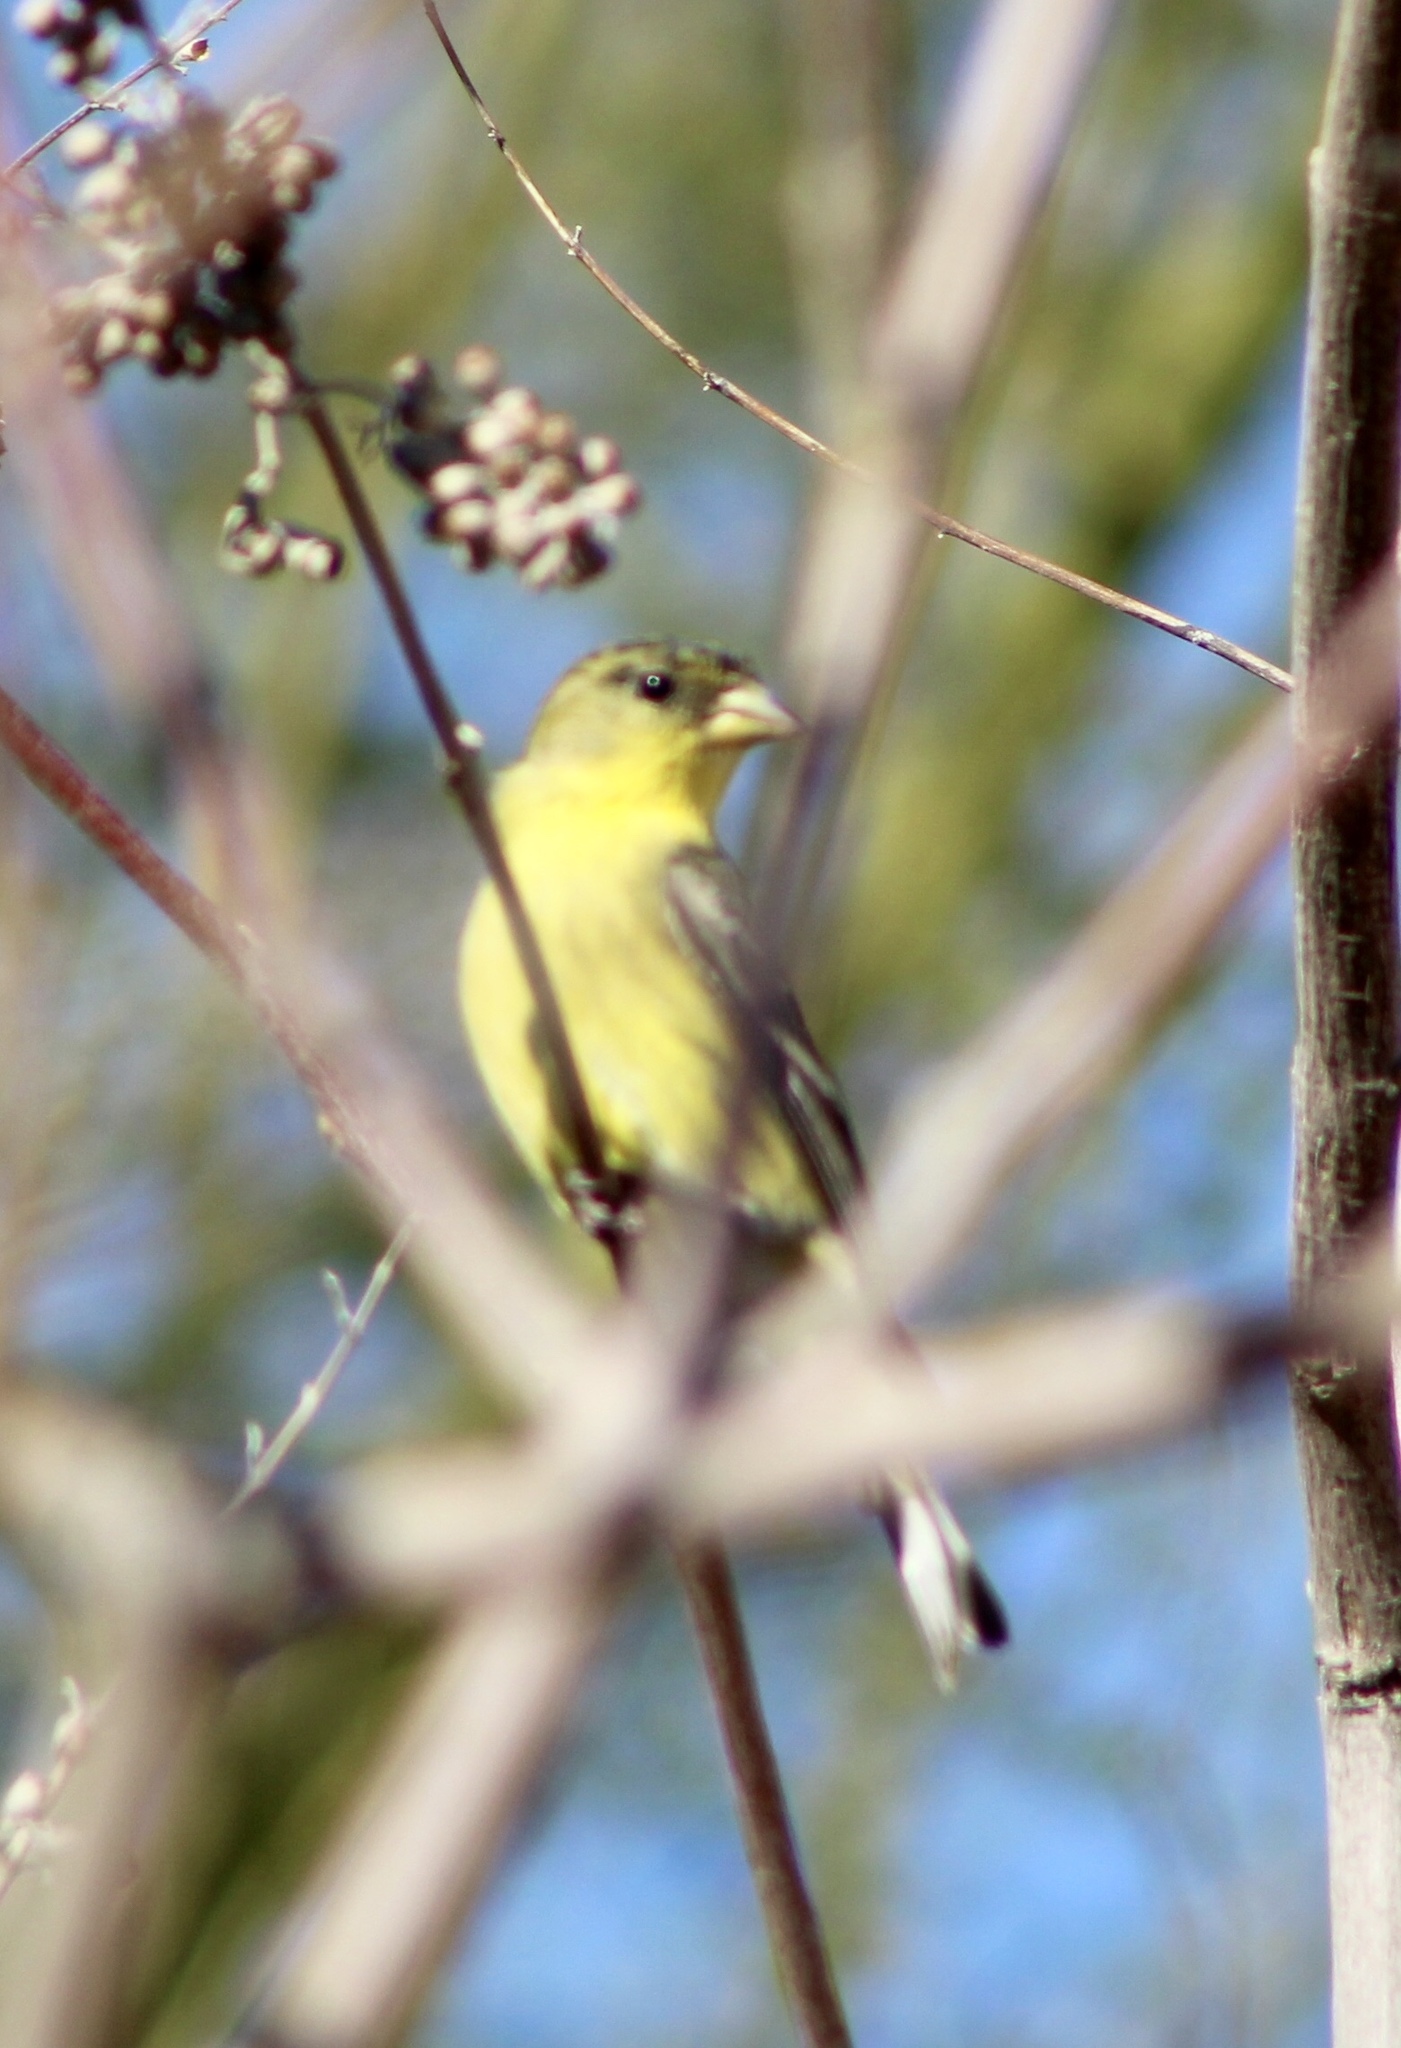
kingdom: Animalia
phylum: Chordata
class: Aves
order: Passeriformes
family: Fringillidae
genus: Spinus
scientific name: Spinus psaltria
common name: Lesser goldfinch
